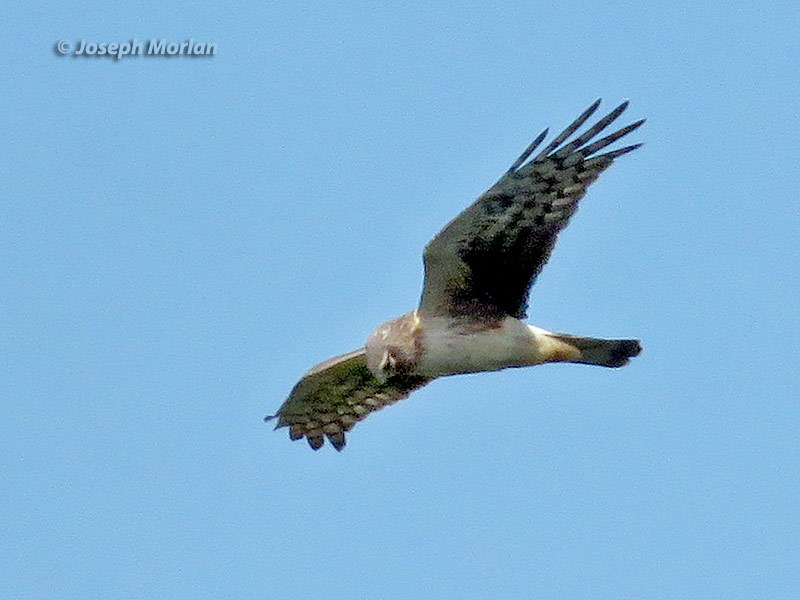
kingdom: Animalia
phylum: Chordata
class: Aves
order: Accipitriformes
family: Accipitridae
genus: Circus
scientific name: Circus cyaneus
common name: Hen harrier
